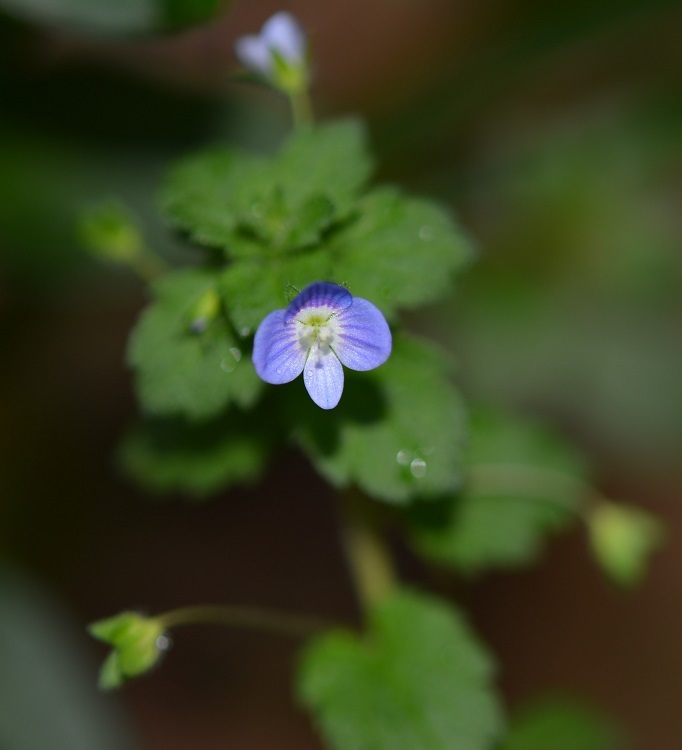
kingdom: Plantae
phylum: Tracheophyta
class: Magnoliopsida
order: Lamiales
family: Plantaginaceae
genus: Veronica
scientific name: Veronica persica
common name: Common field-speedwell
